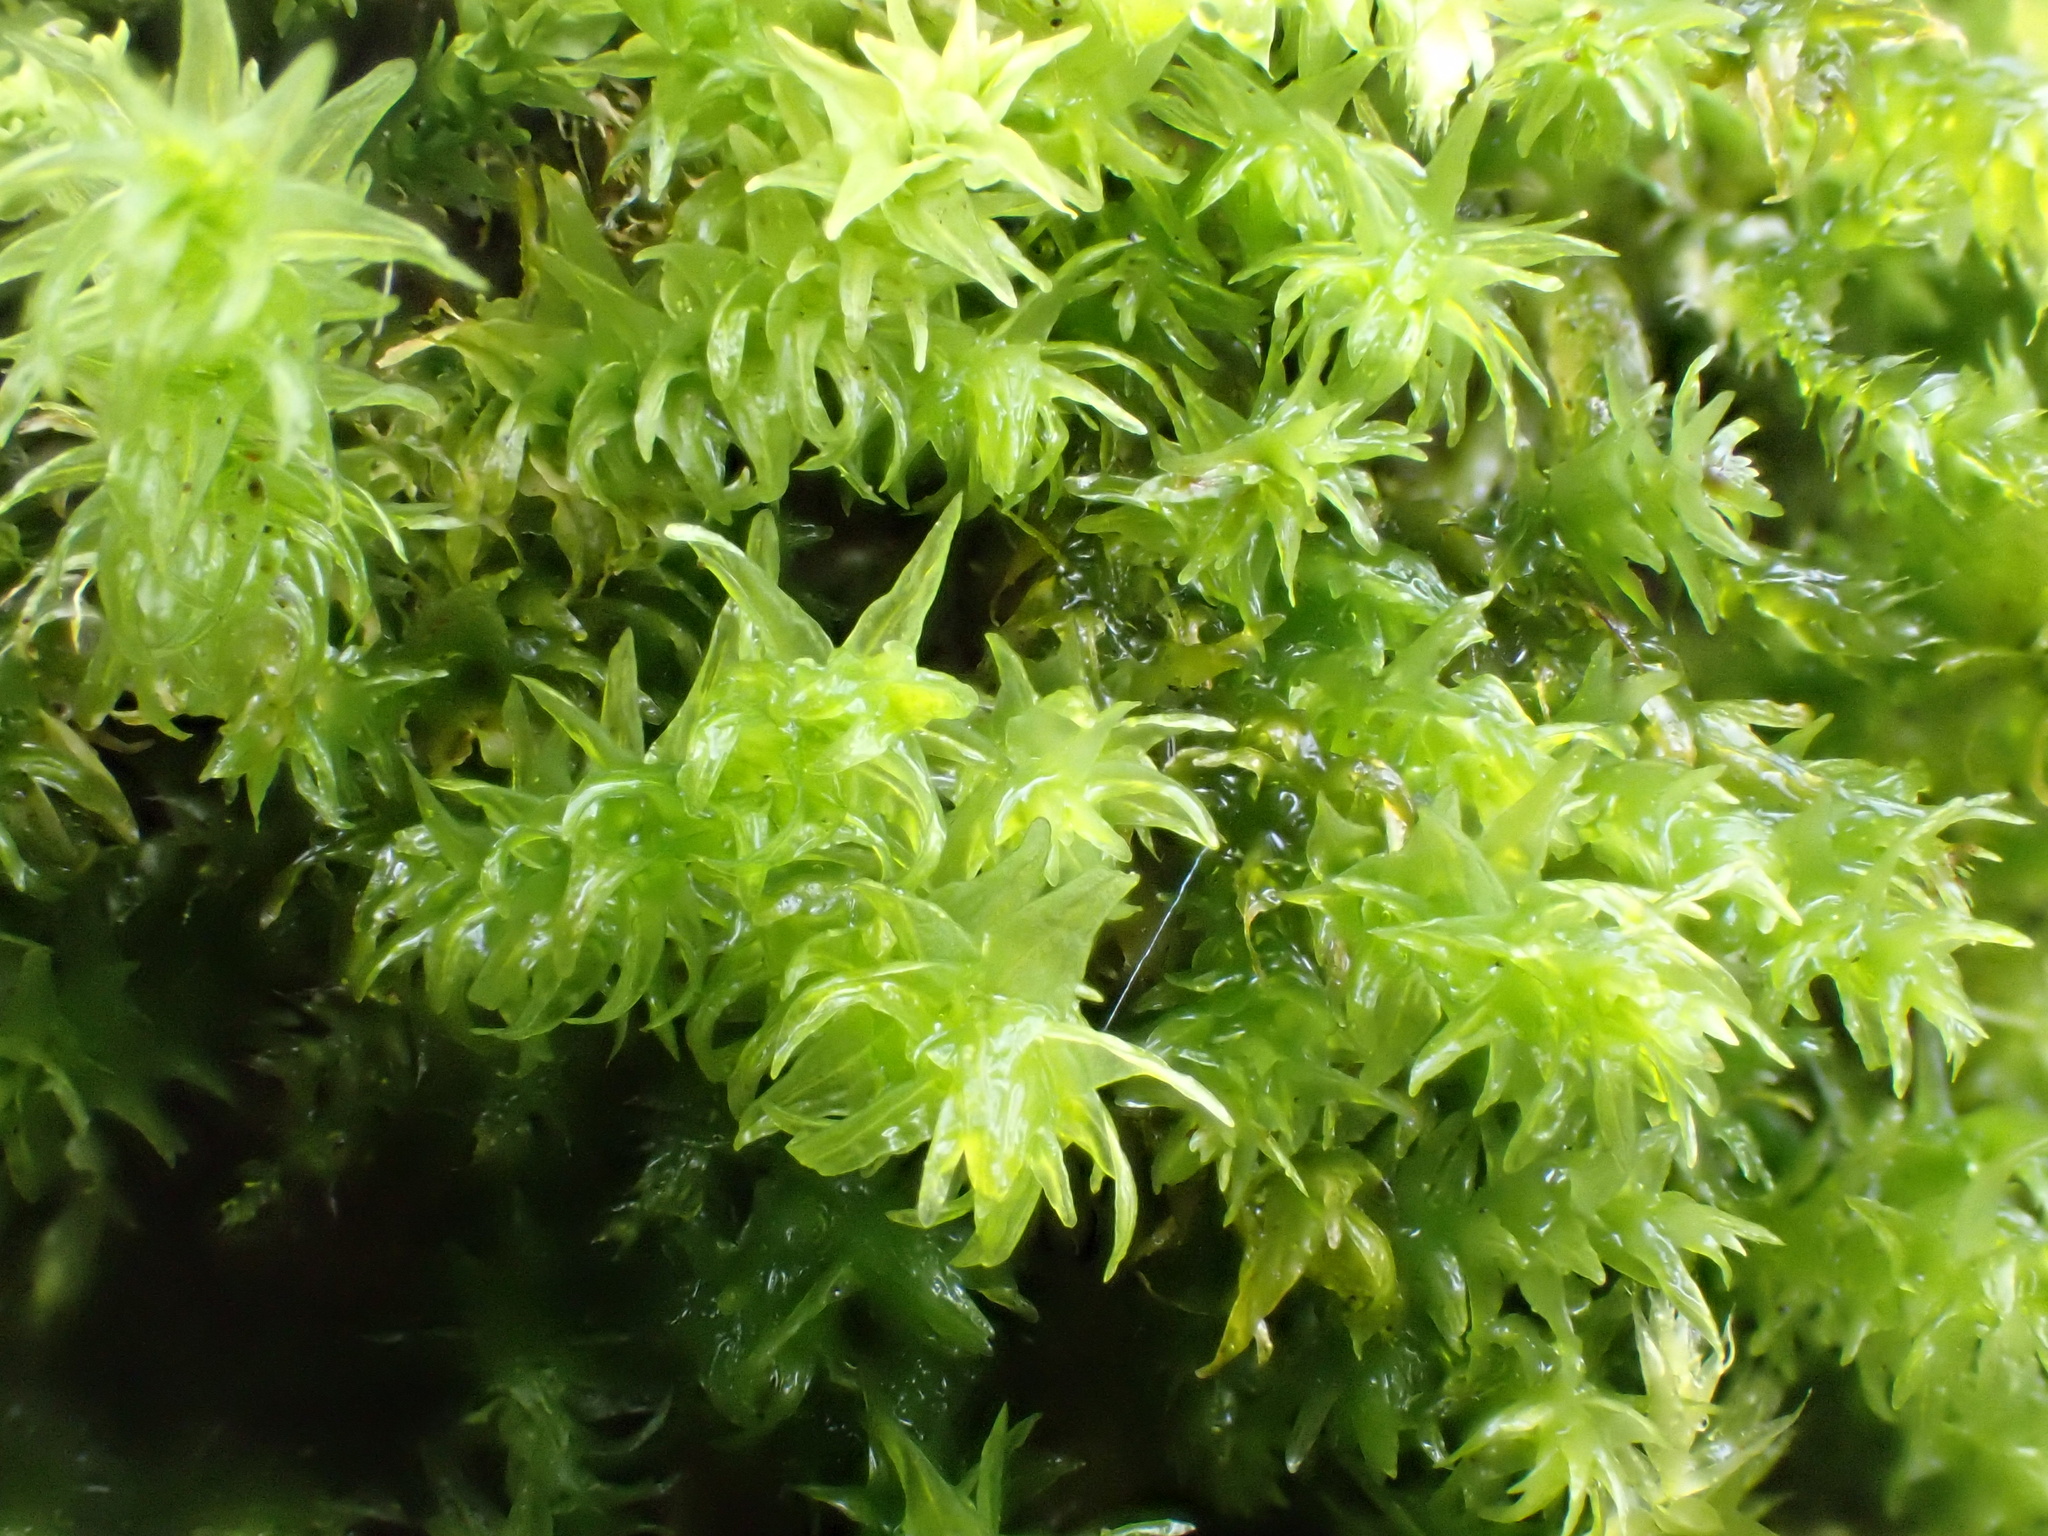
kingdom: Plantae
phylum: Bryophyta
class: Bryopsida
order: Hypnales
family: Anomodontaceae
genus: Anomodon
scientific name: Anomodon viticulosus
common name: Tall anomodon
